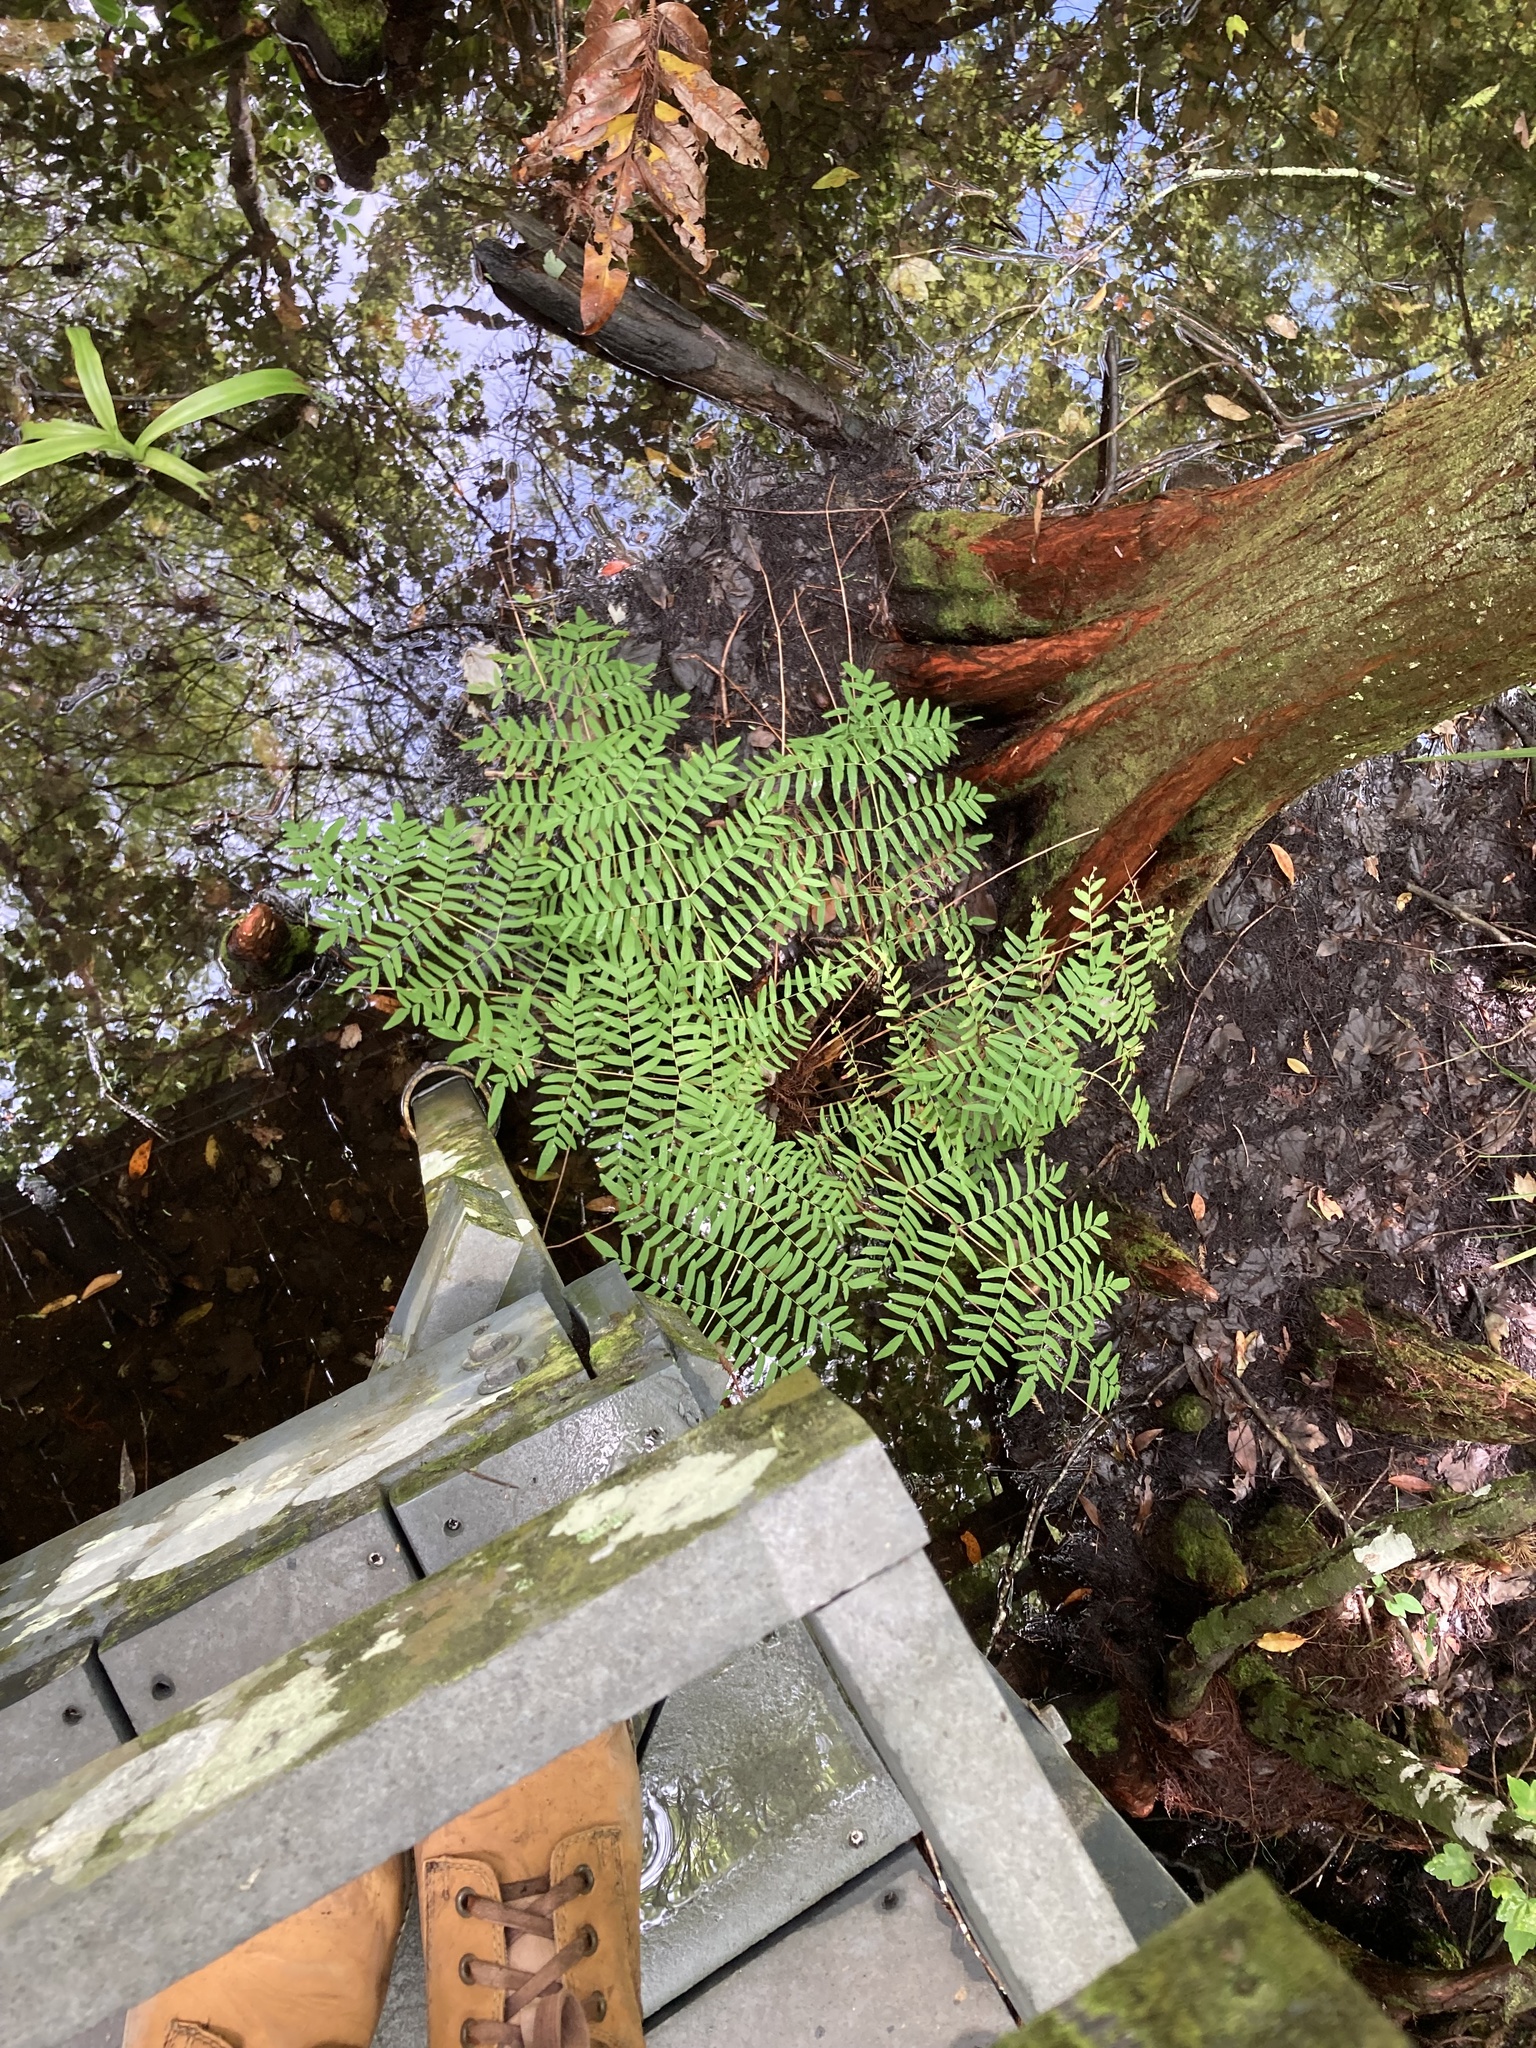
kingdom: Plantae
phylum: Tracheophyta
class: Polypodiopsida
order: Osmundales
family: Osmundaceae
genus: Osmunda
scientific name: Osmunda spectabilis
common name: American royal fern
